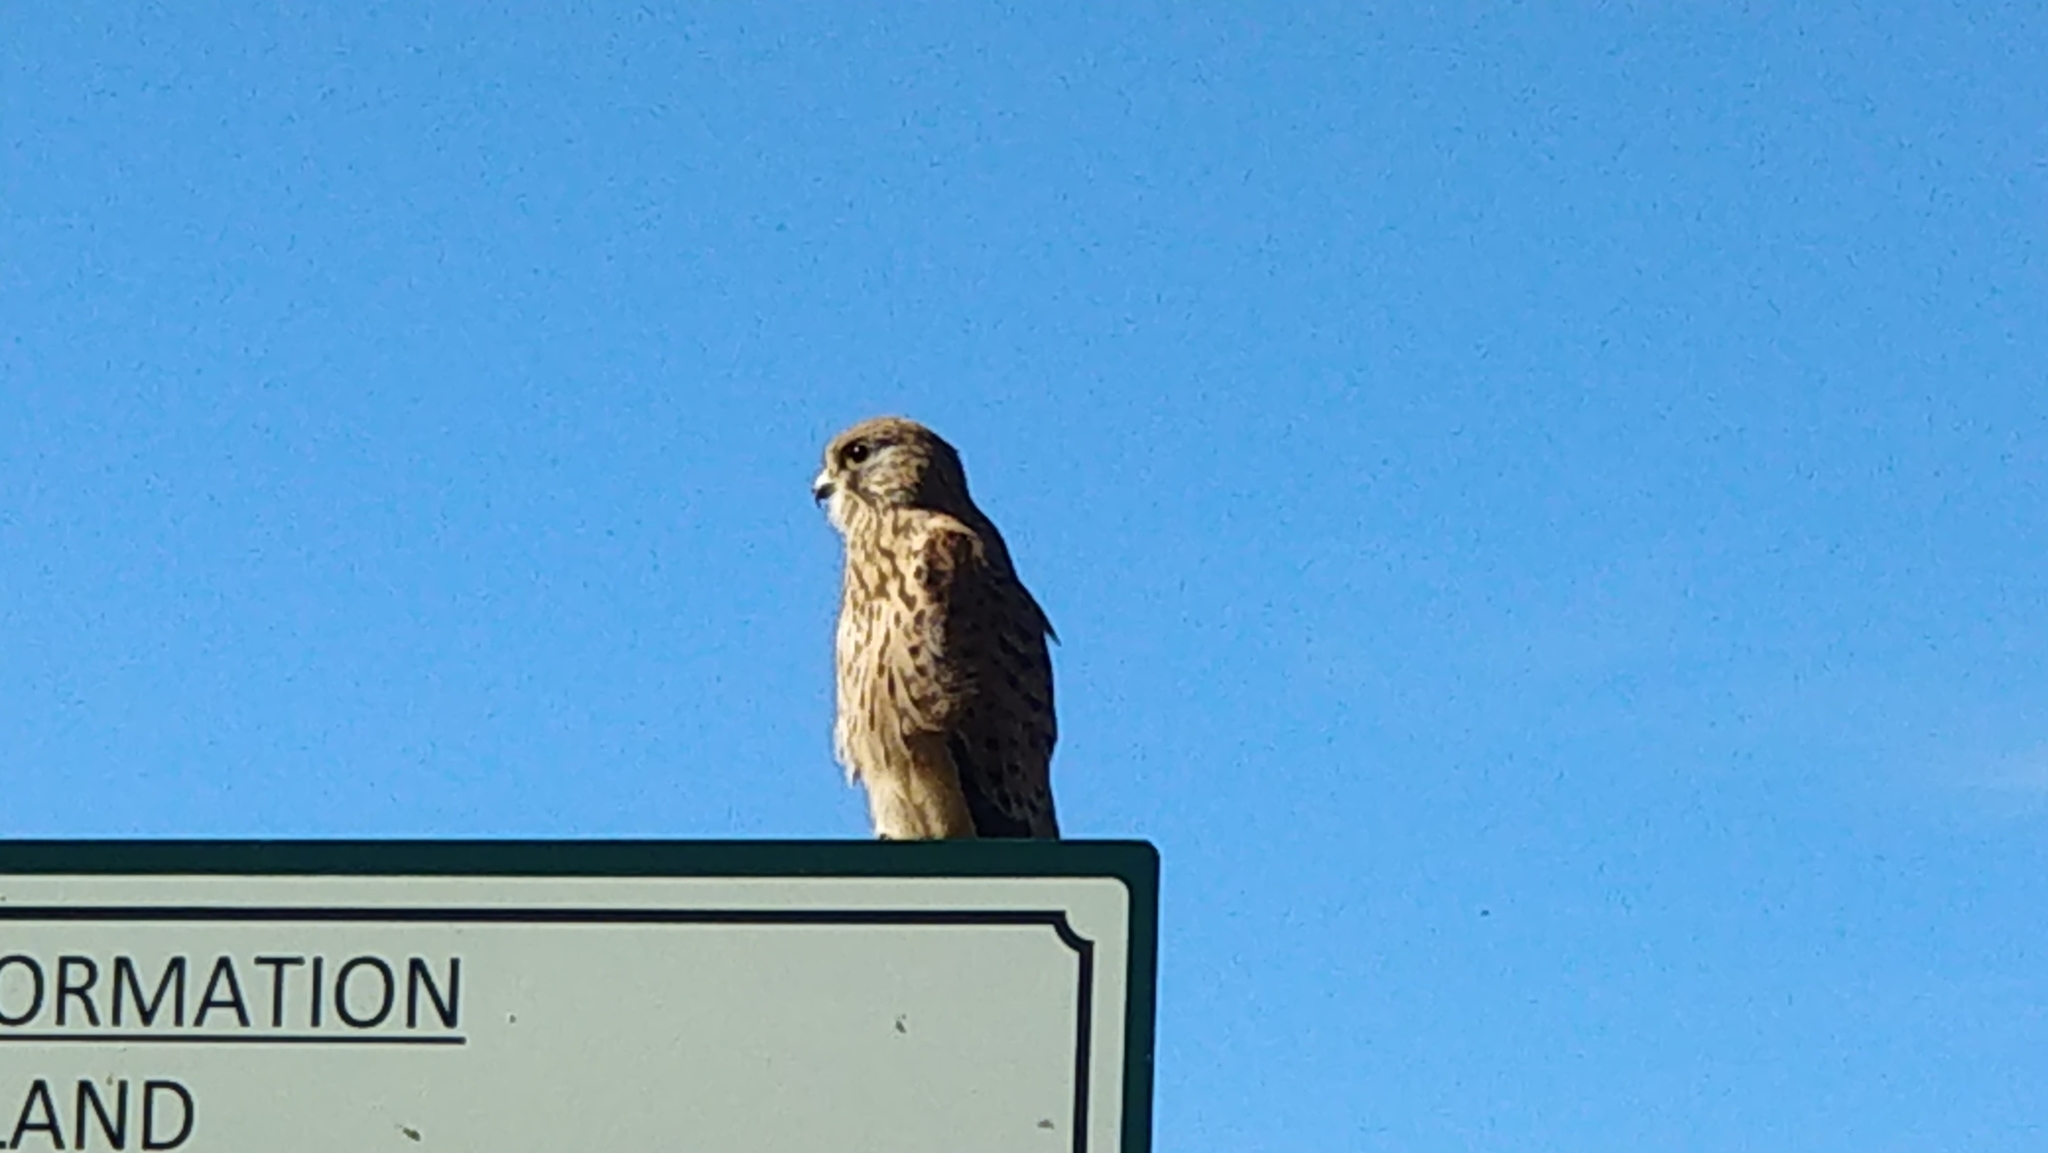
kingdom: Animalia
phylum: Chordata
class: Aves
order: Falconiformes
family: Falconidae
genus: Falco
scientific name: Falco tinnunculus
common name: Common kestrel
